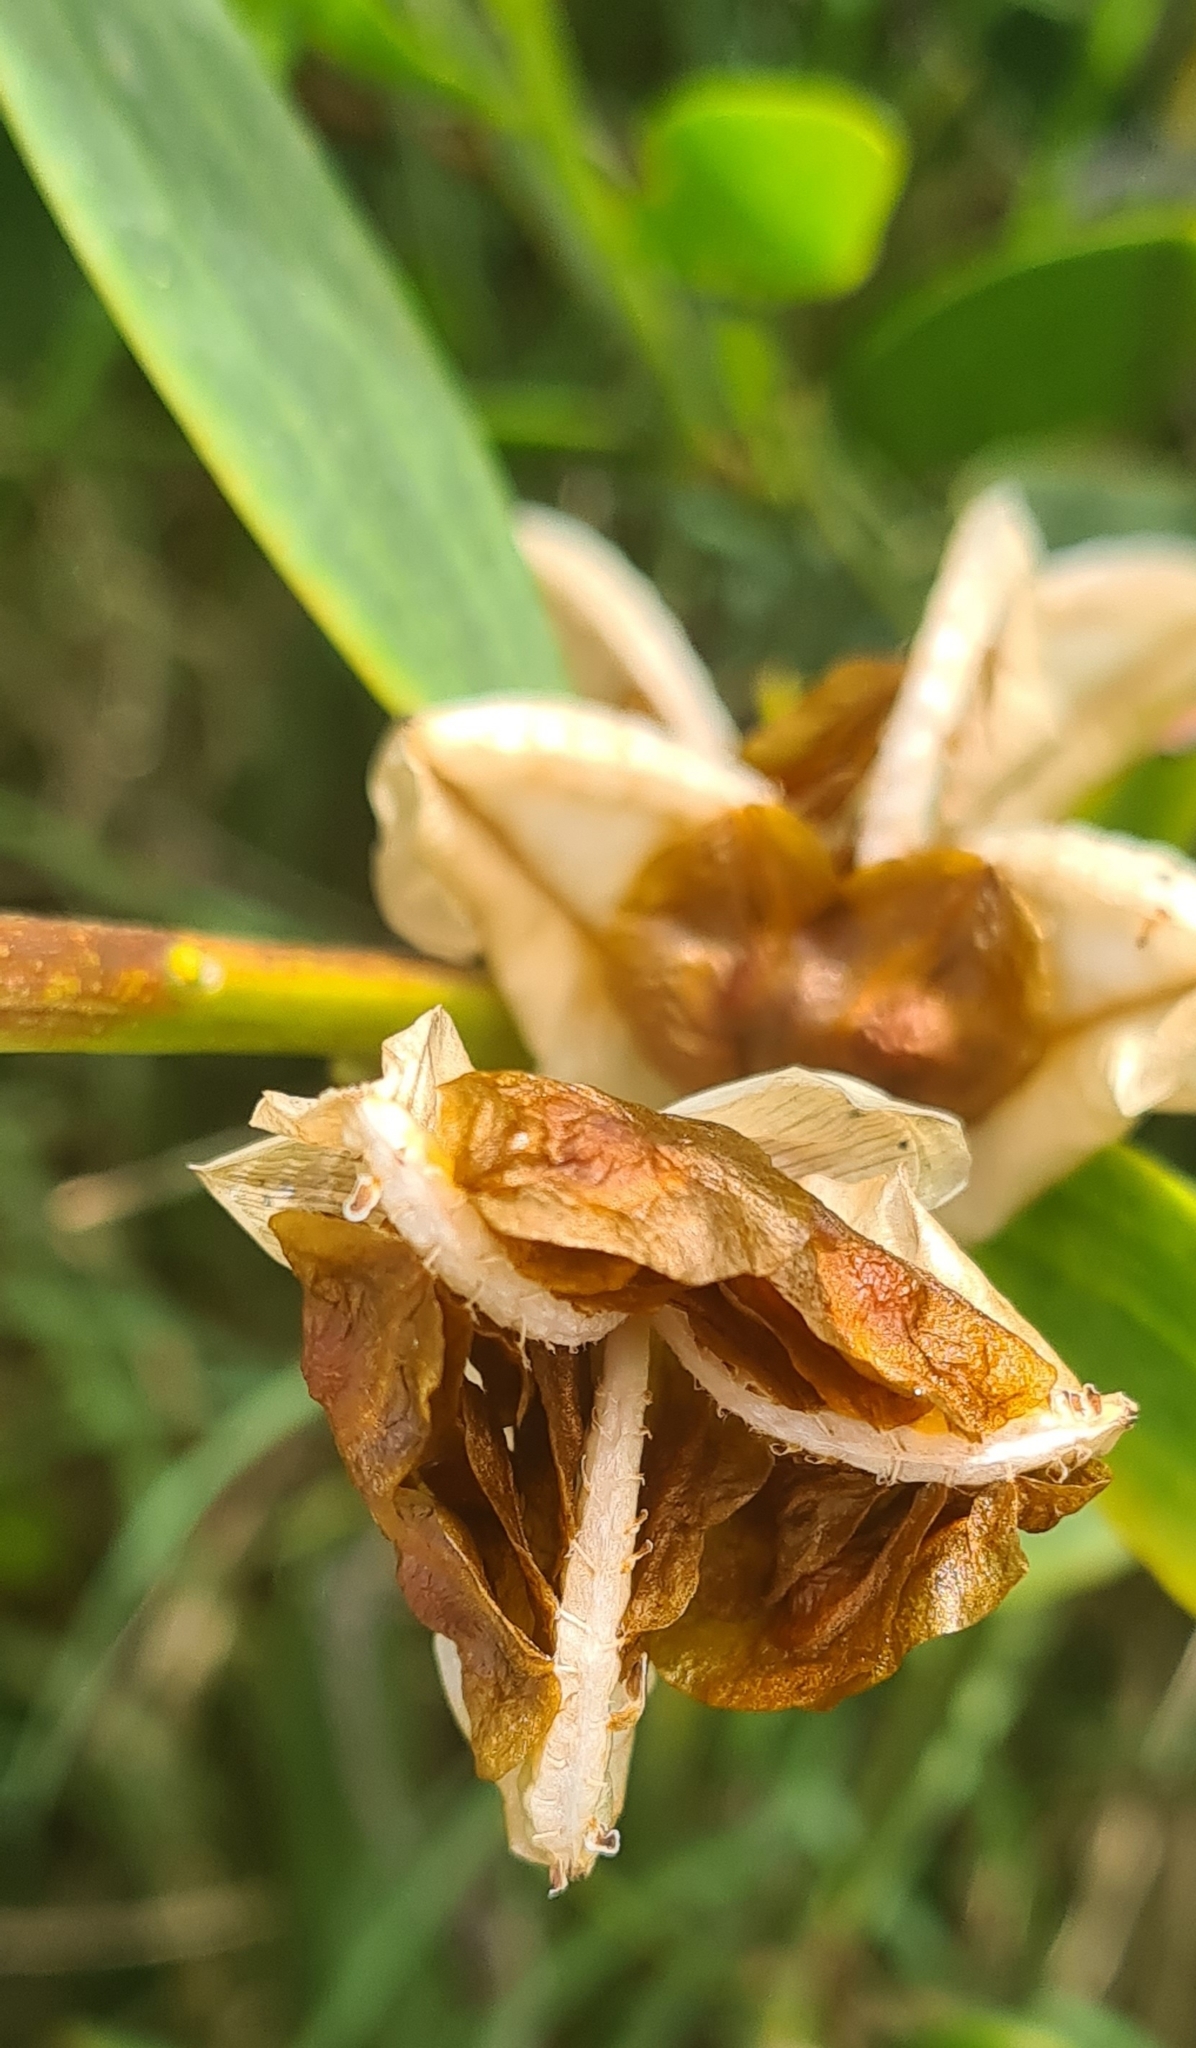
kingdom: Plantae
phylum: Tracheophyta
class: Liliopsida
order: Asparagales
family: Iridaceae
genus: Gladiolus
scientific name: Gladiolus gueinzii
